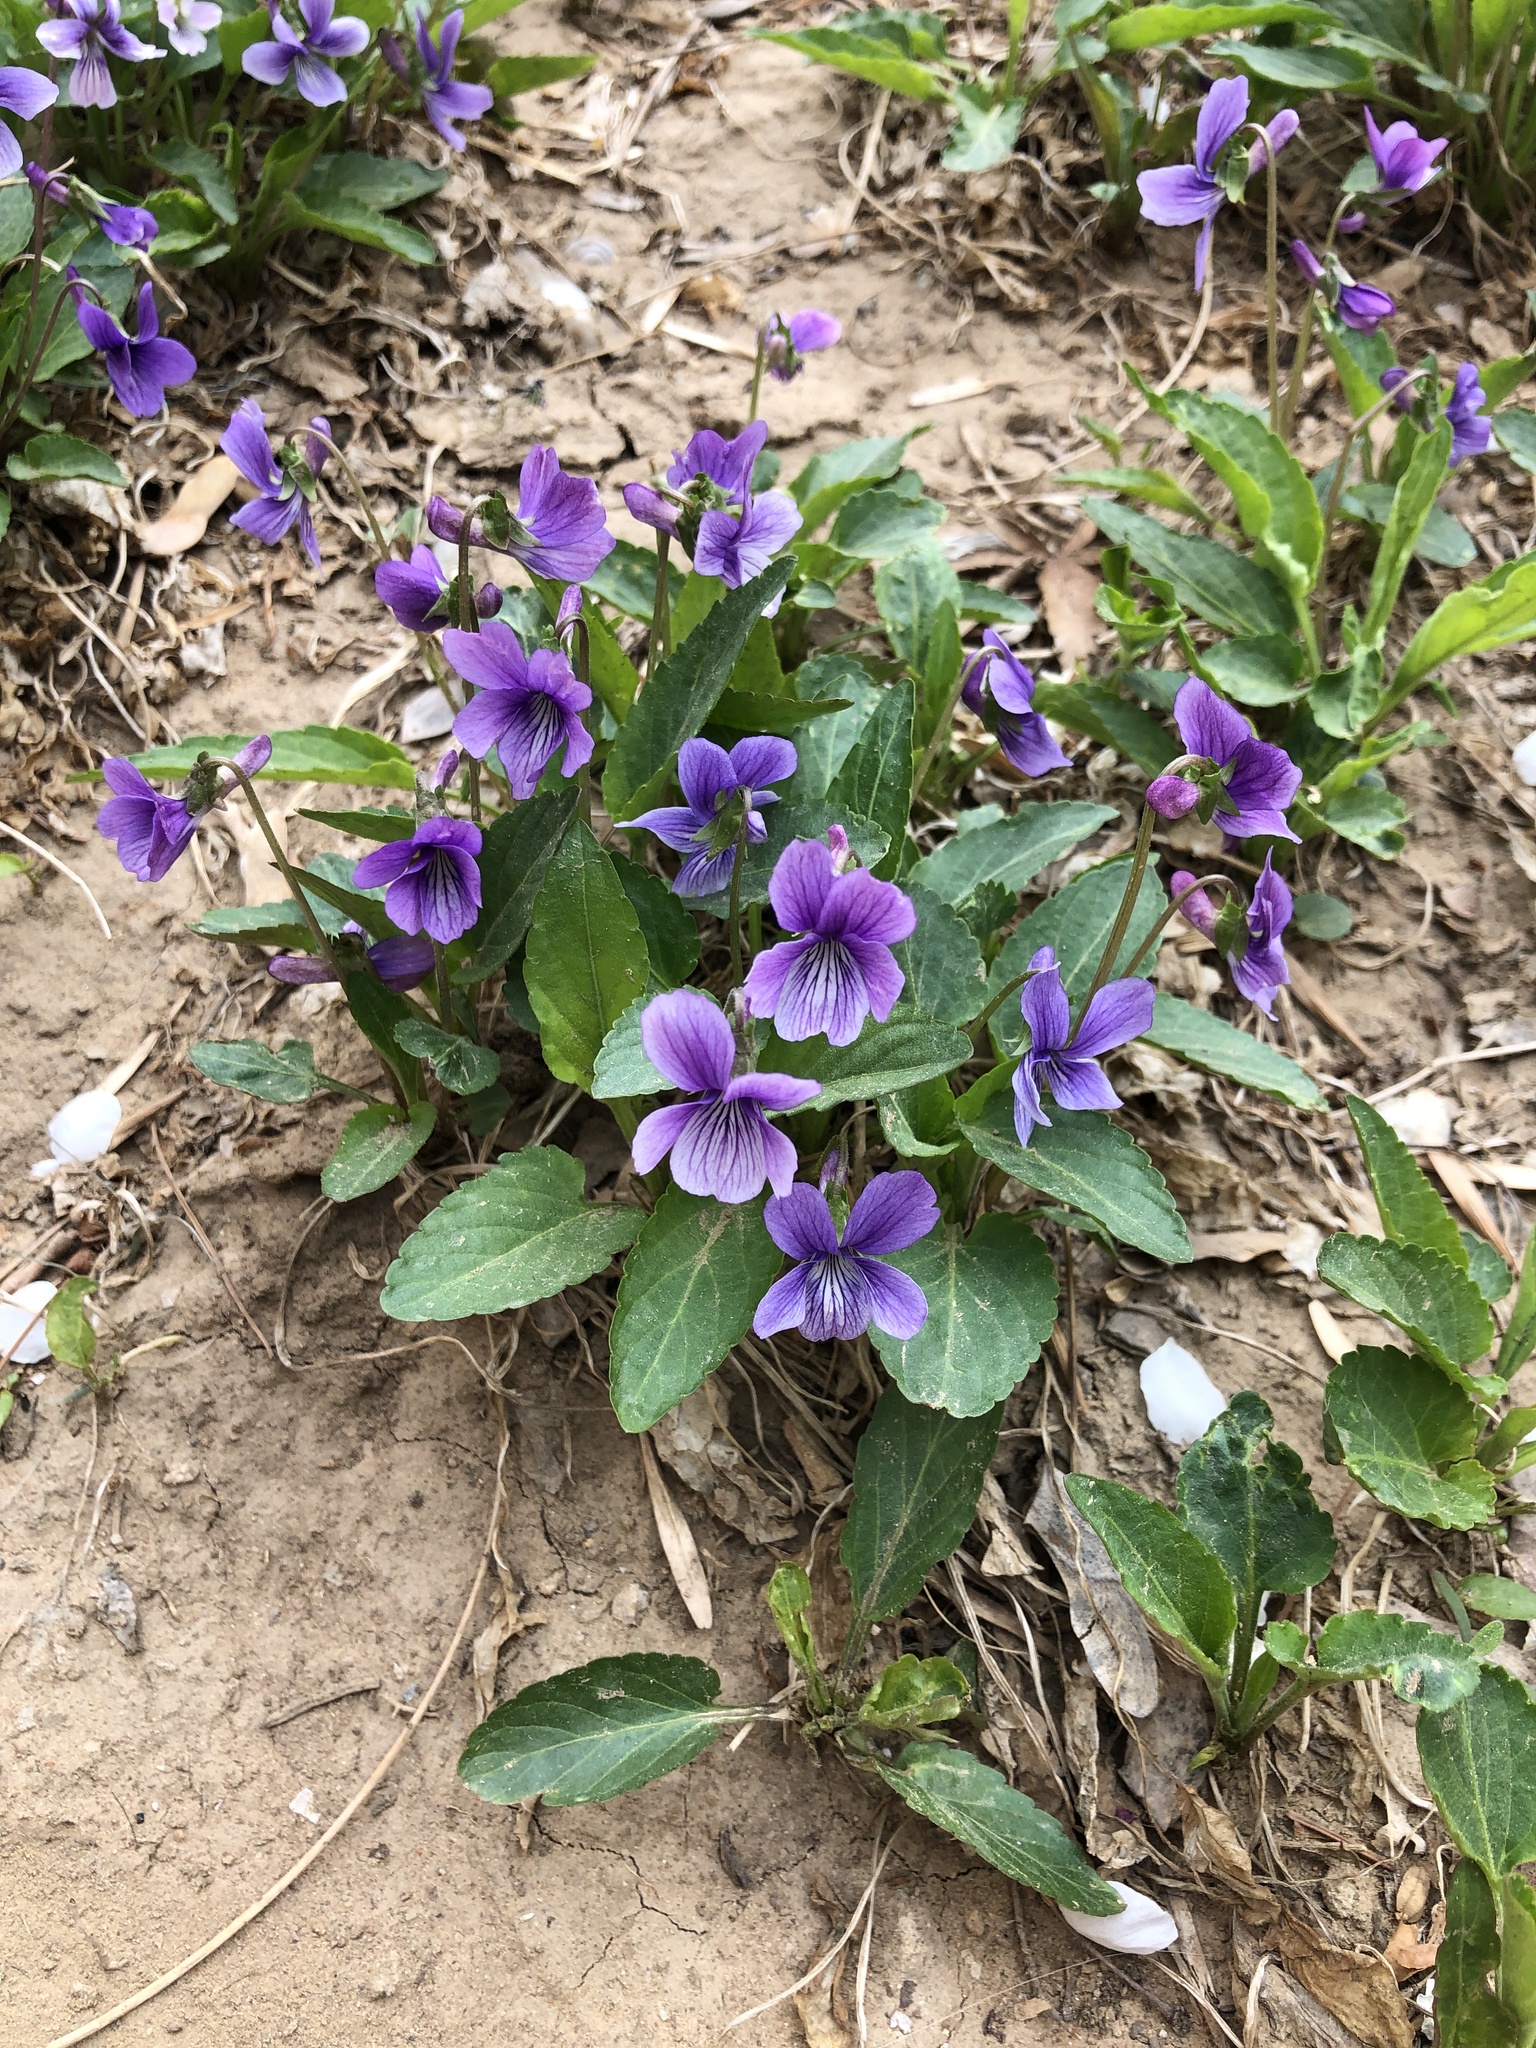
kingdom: Plantae
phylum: Tracheophyta
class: Magnoliopsida
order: Malpighiales
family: Violaceae
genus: Viola
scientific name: Viola prionantha
